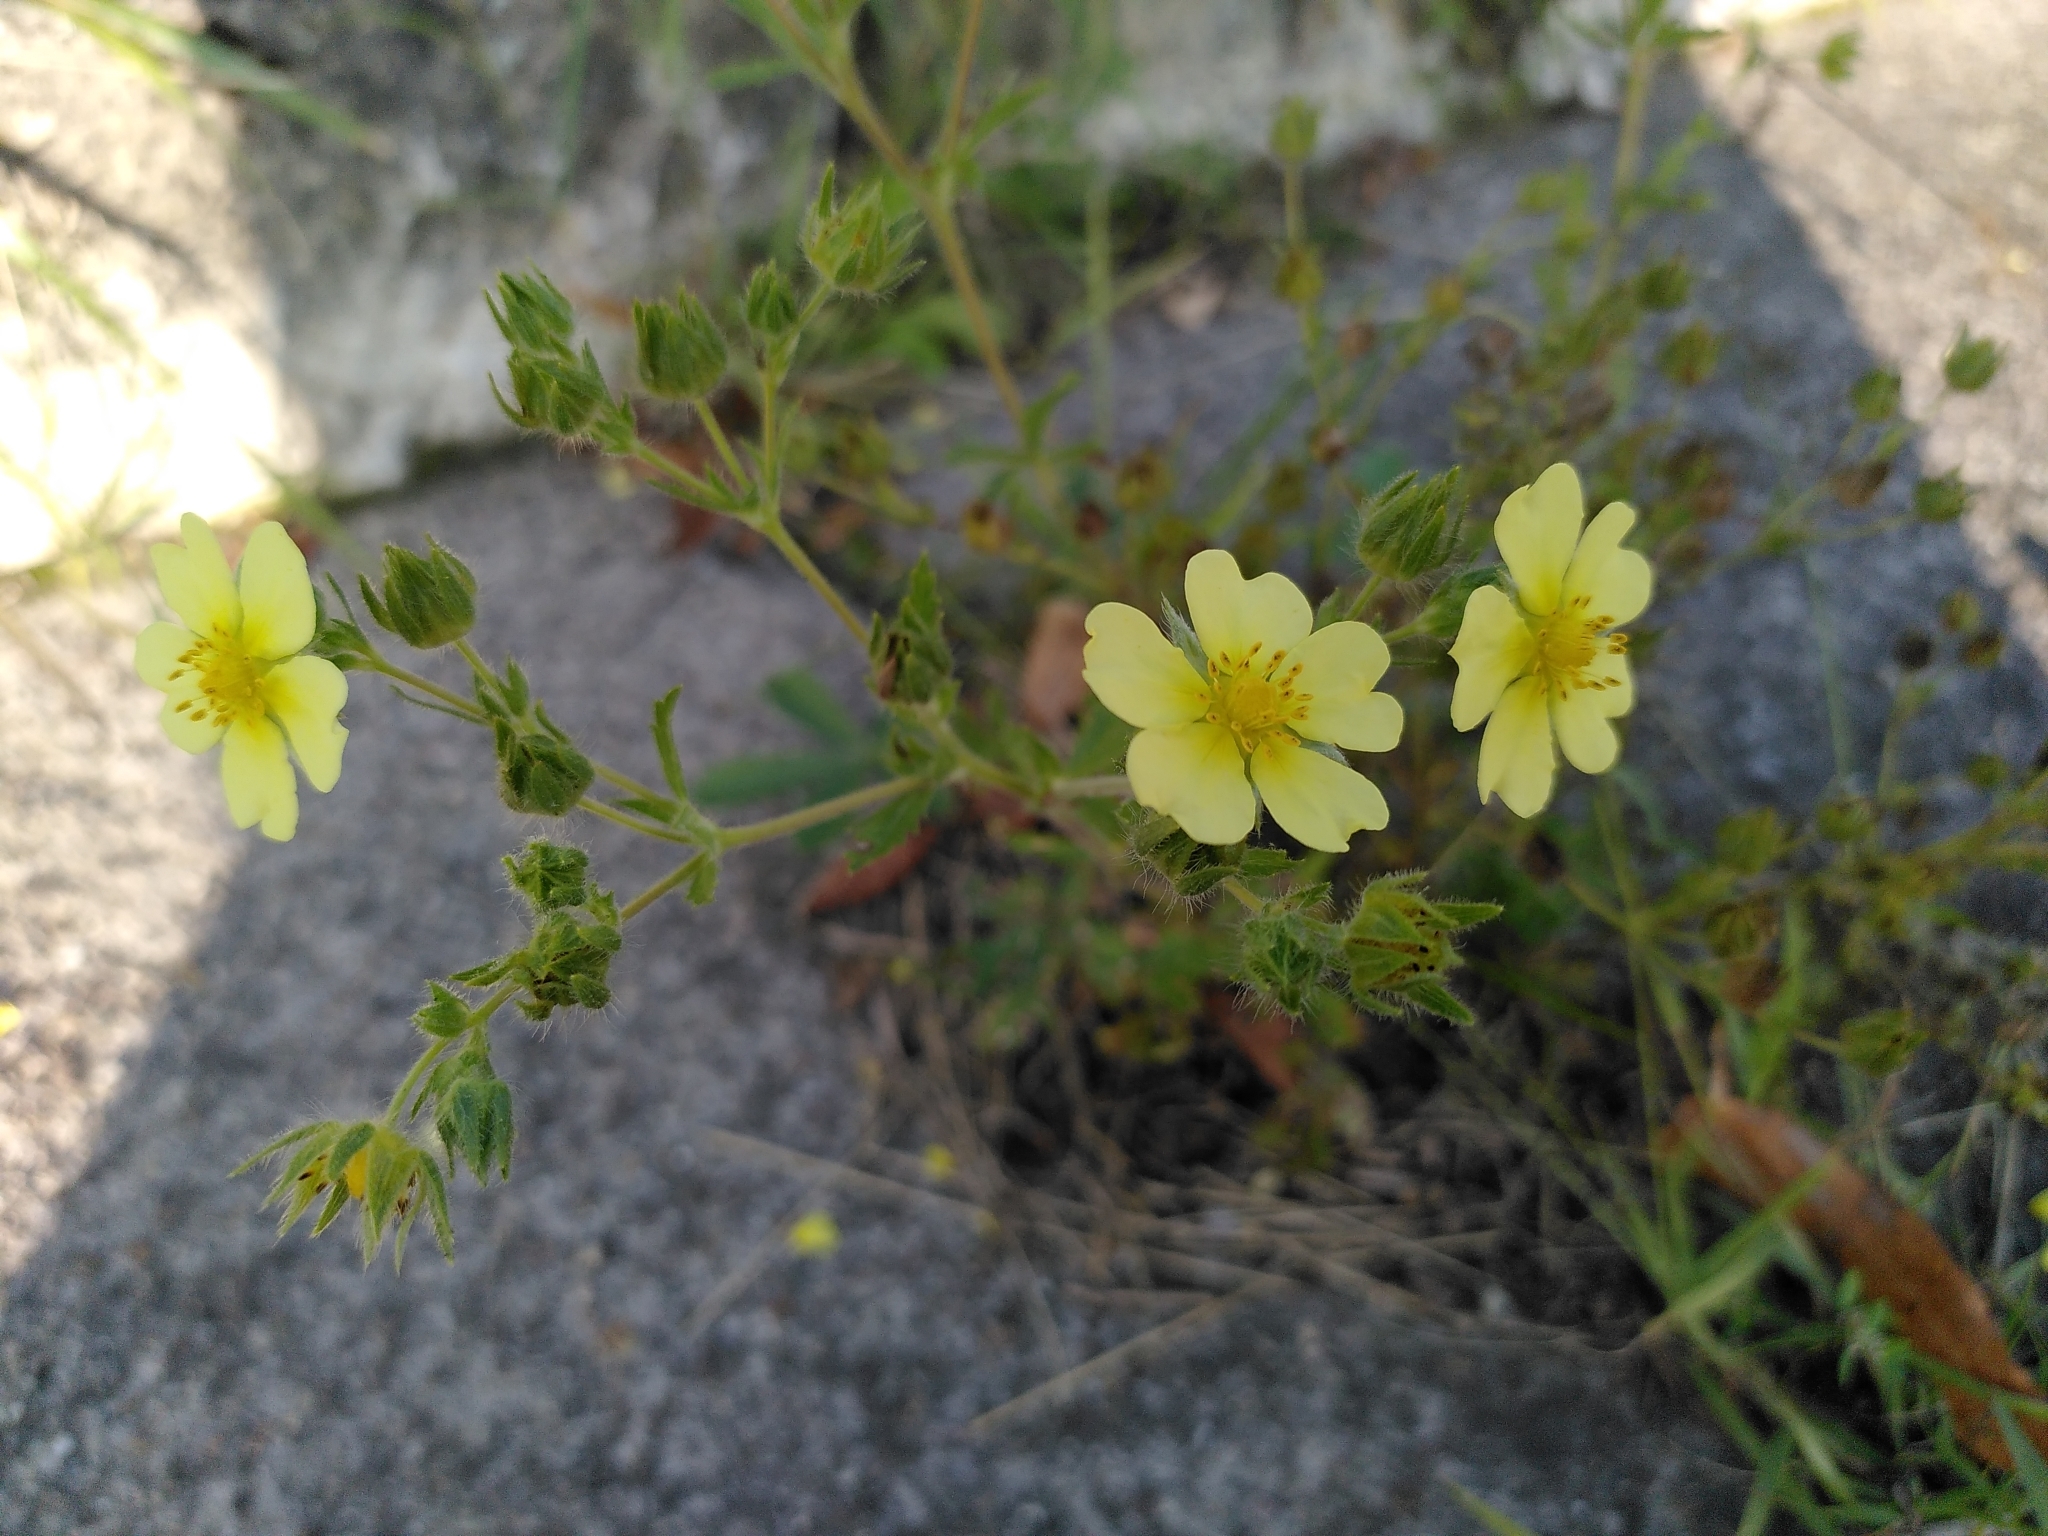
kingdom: Plantae
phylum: Tracheophyta
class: Magnoliopsida
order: Rosales
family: Rosaceae
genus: Potentilla
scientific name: Potentilla recta
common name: Sulphur cinquefoil
